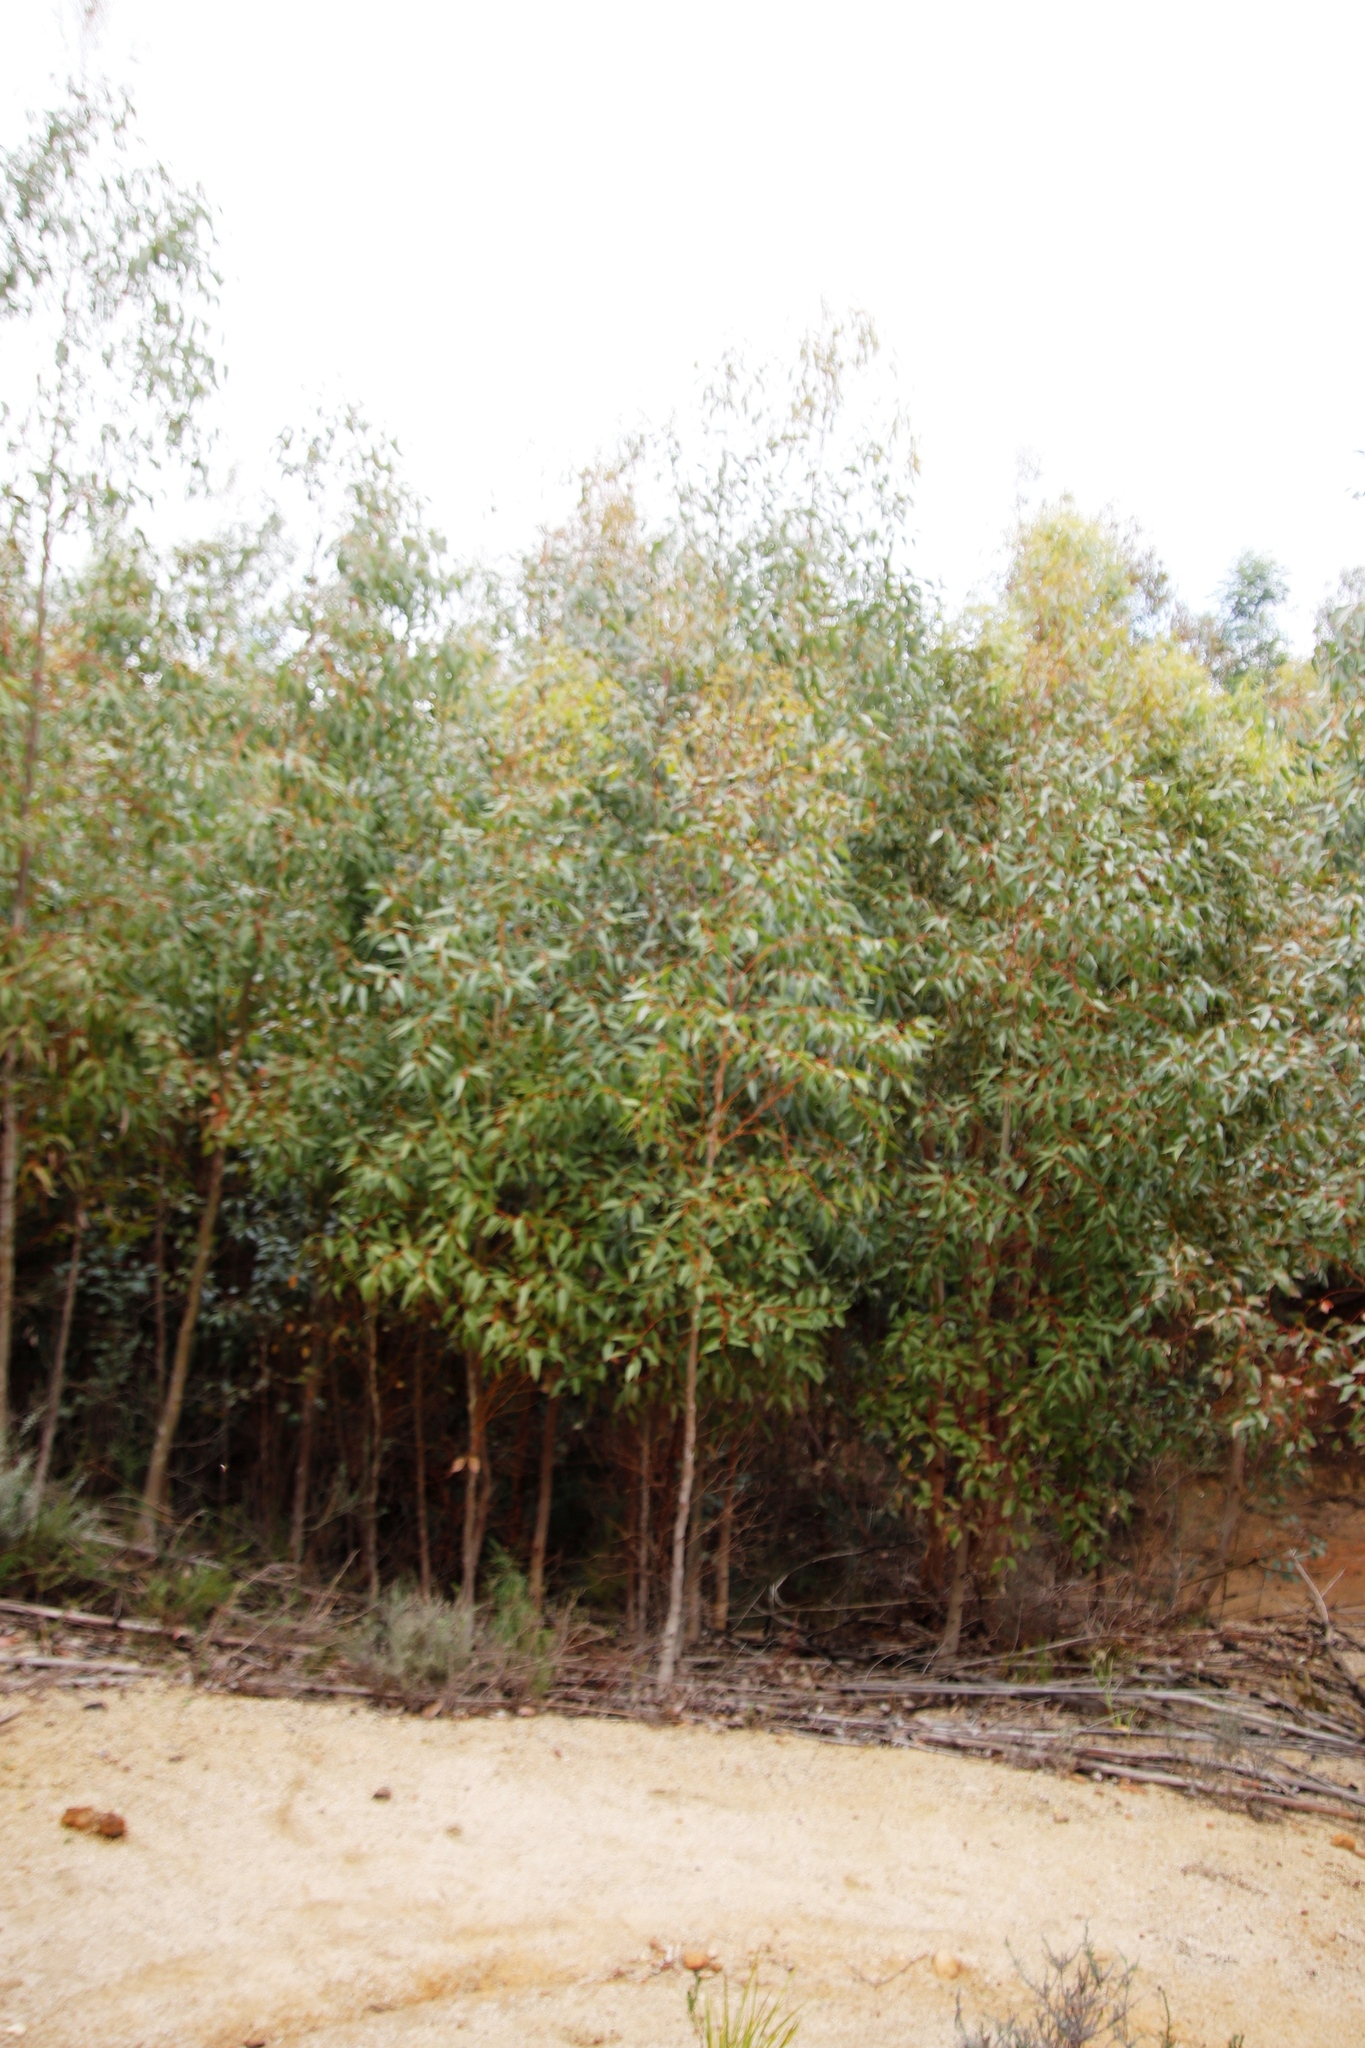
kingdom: Plantae
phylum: Tracheophyta
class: Magnoliopsida
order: Myrtales
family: Myrtaceae
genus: Eucalyptus
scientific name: Eucalyptus cladocalyx
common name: Sugargum
